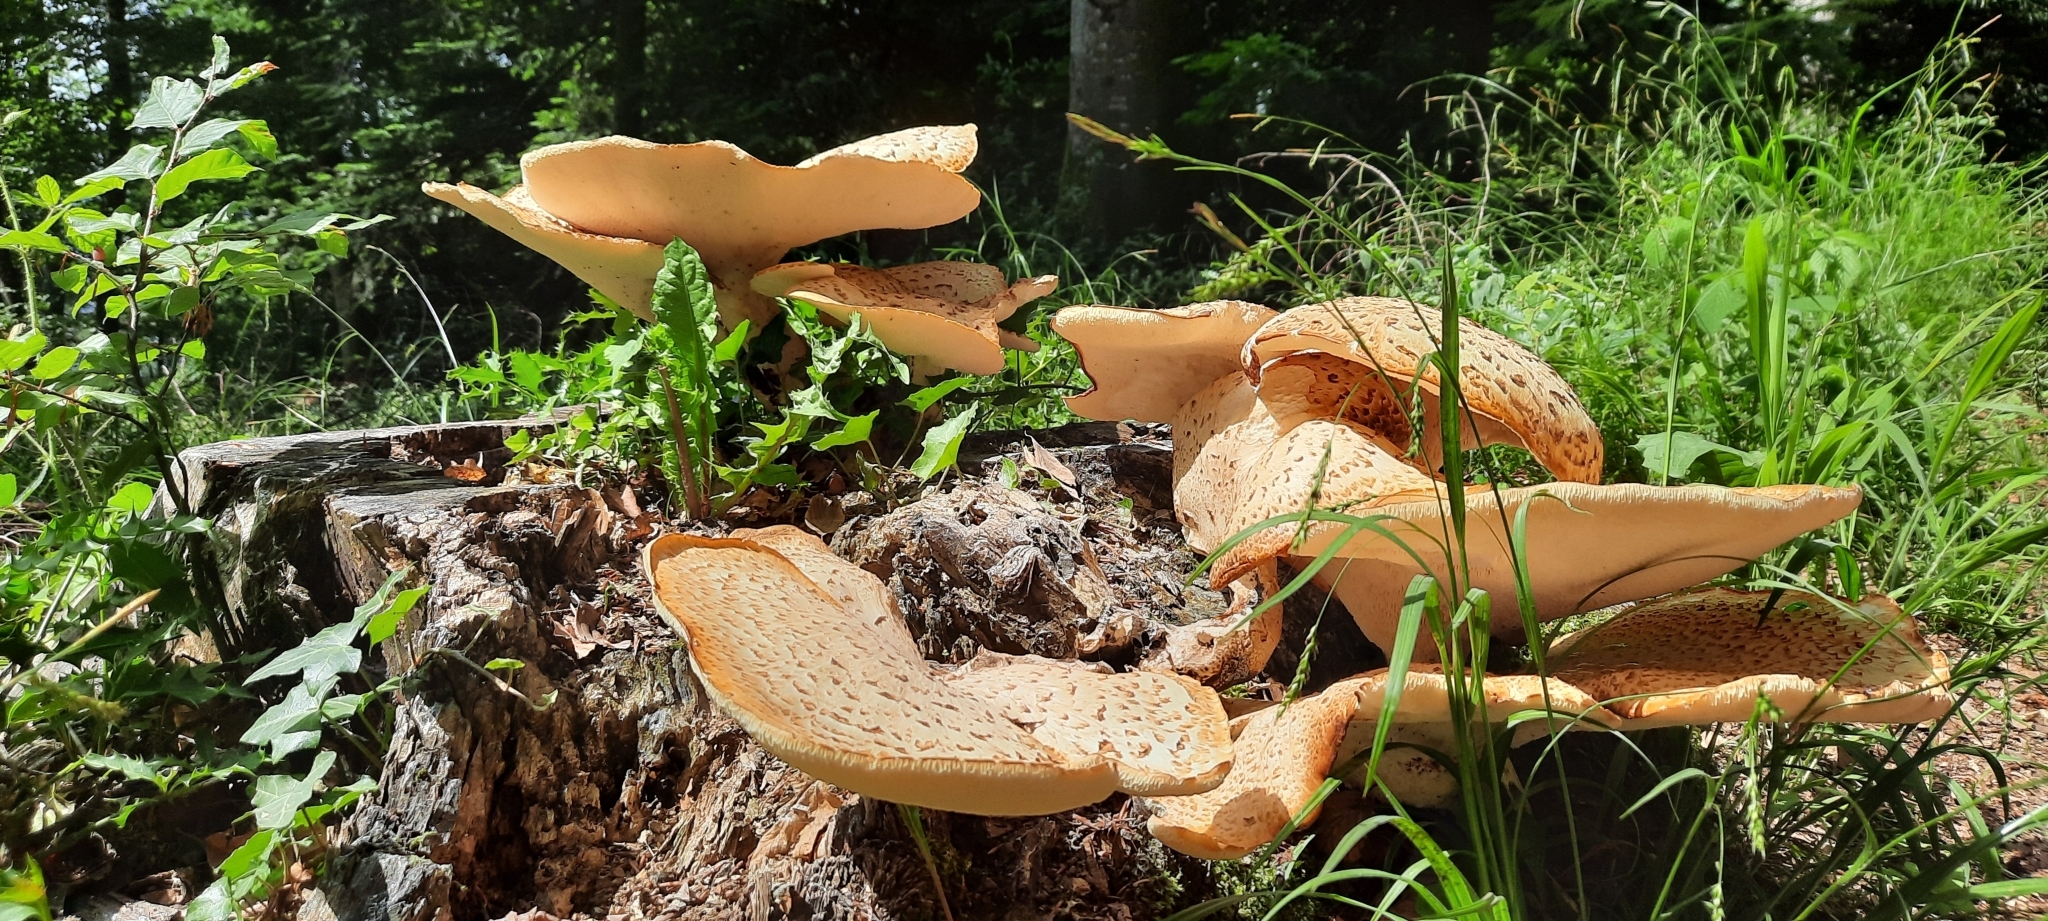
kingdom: Fungi
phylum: Basidiomycota
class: Agaricomycetes
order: Polyporales
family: Polyporaceae
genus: Cerioporus
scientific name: Cerioporus squamosus
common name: Dryad's saddle
